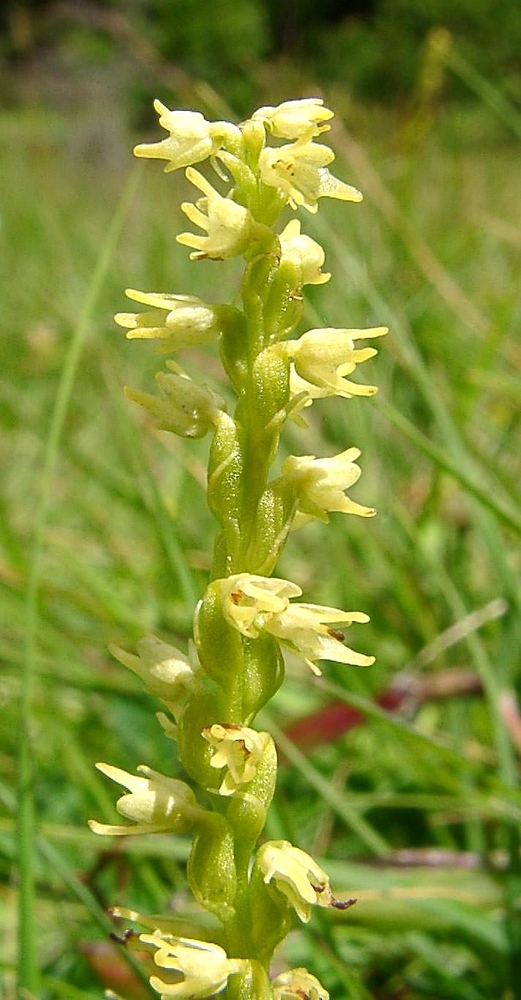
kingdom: Plantae
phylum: Tracheophyta
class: Liliopsida
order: Asparagales
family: Orchidaceae
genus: Herminium
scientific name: Herminium monorchis
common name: Musk orchid
